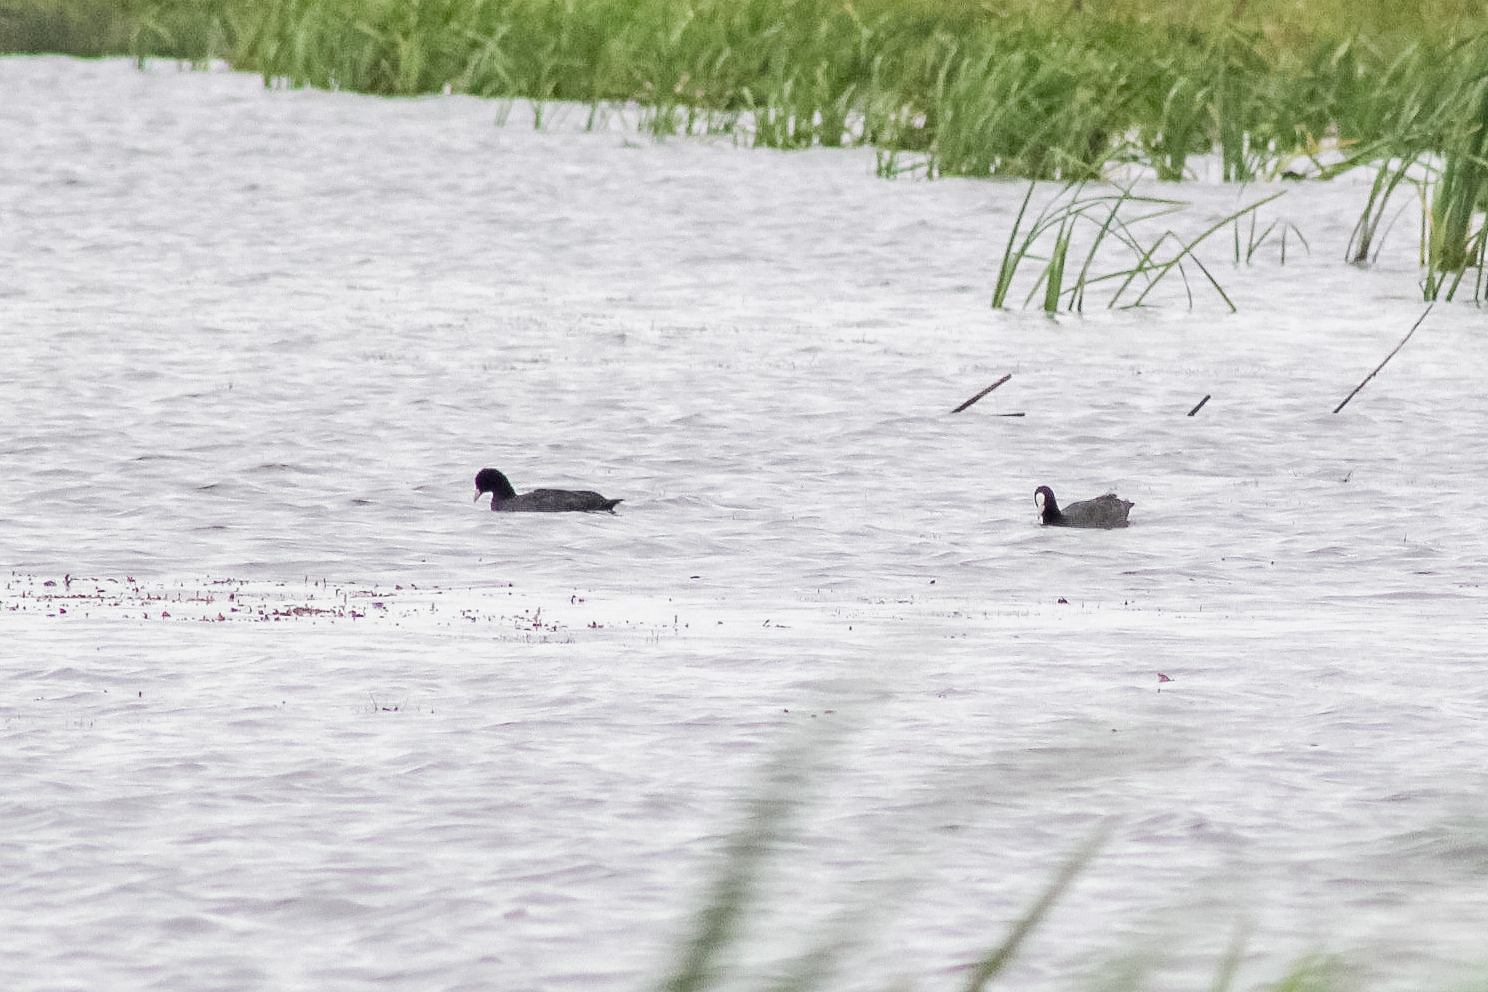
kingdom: Animalia
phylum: Chordata
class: Aves
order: Gruiformes
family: Rallidae
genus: Fulica
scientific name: Fulica atra
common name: Eurasian coot
